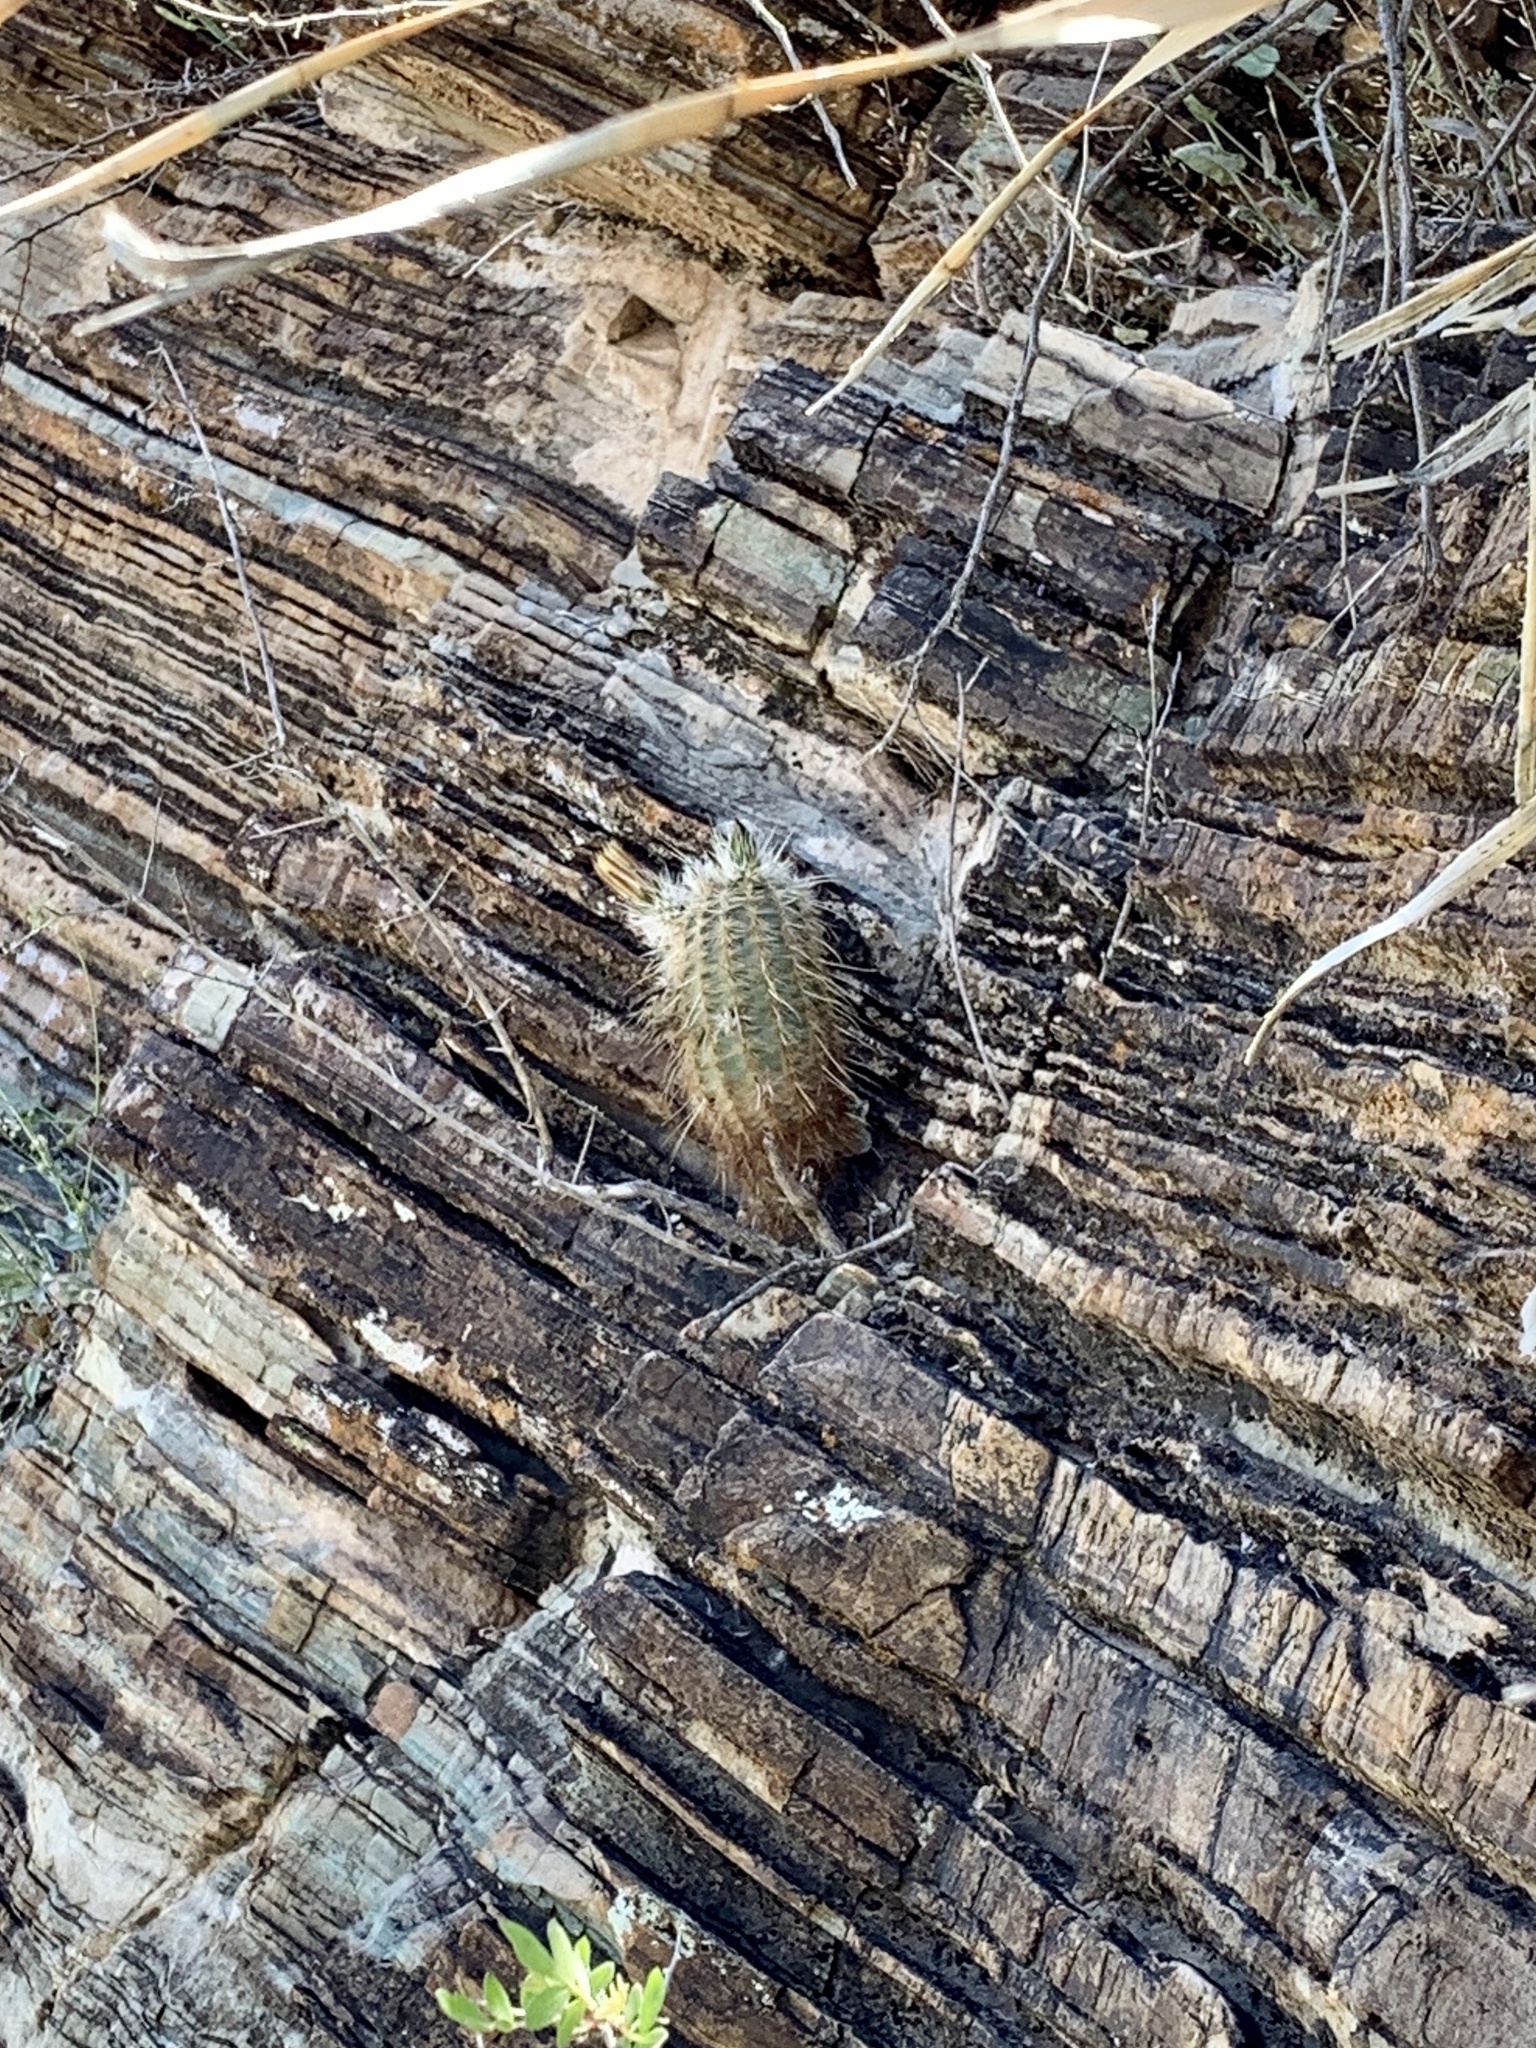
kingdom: Plantae
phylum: Tracheophyta
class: Magnoliopsida
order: Caryophyllales
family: Cactaceae
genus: Echinocereus
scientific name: Echinocereus viridiflorus
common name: Nylon hedgehog cactus
